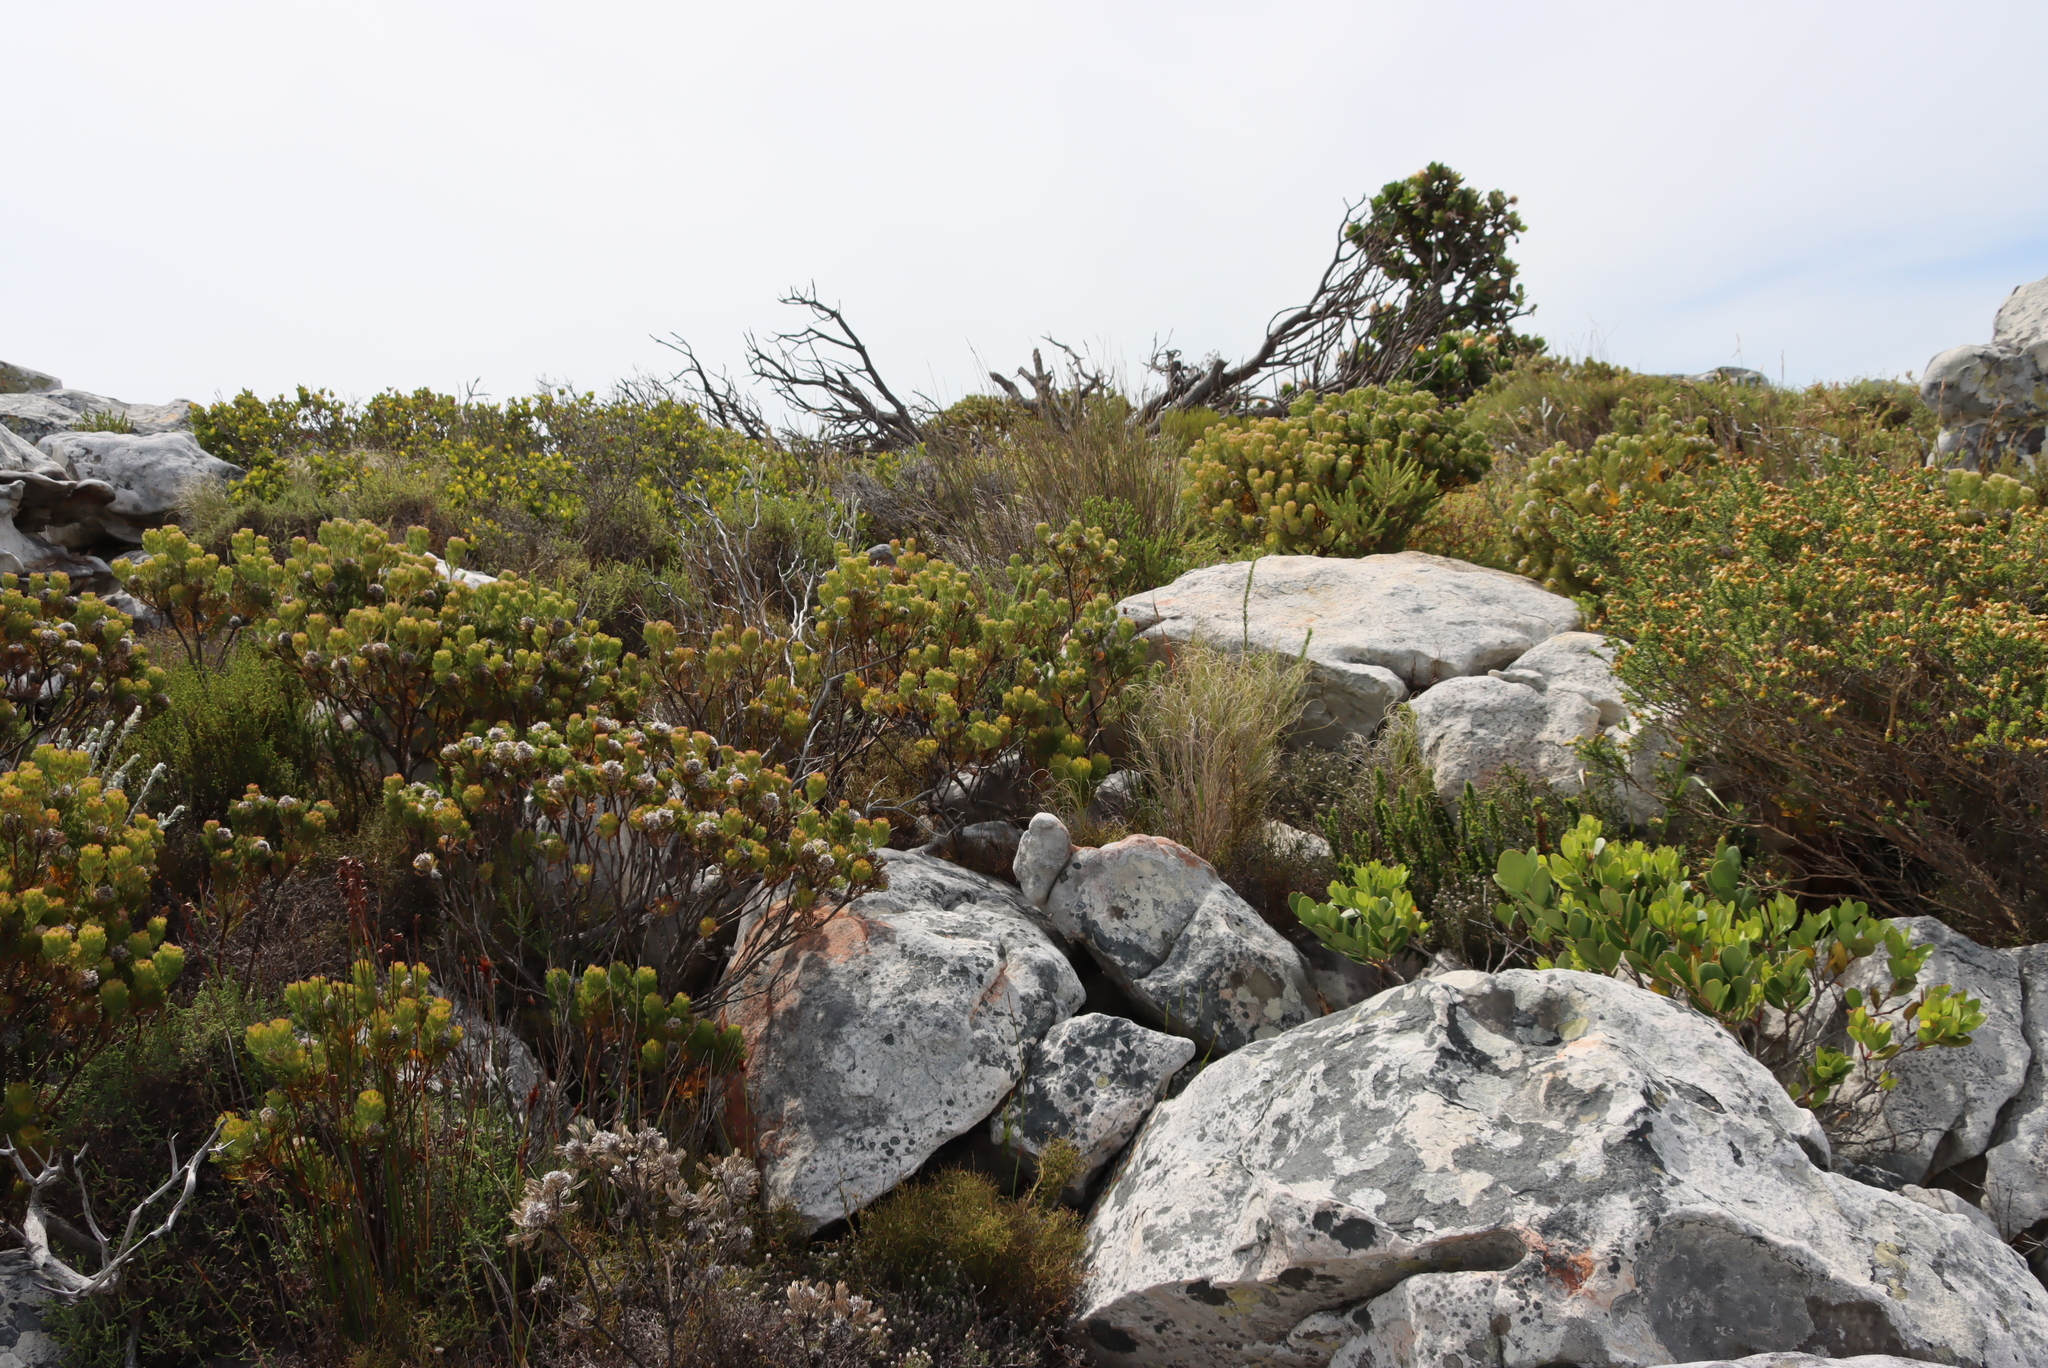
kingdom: Plantae
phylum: Tracheophyta
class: Magnoliopsida
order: Proteales
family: Proteaceae
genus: Serruria
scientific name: Serruria villosa
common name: Golden spiderhead
